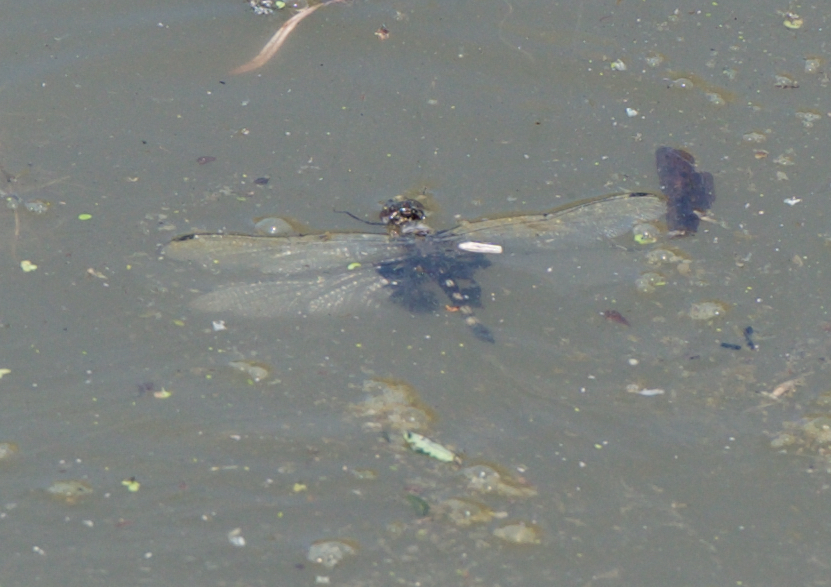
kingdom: Animalia
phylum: Arthropoda
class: Insecta
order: Odonata
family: Libellulidae
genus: Tramea
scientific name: Tramea lacerata
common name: Black saddlebags
